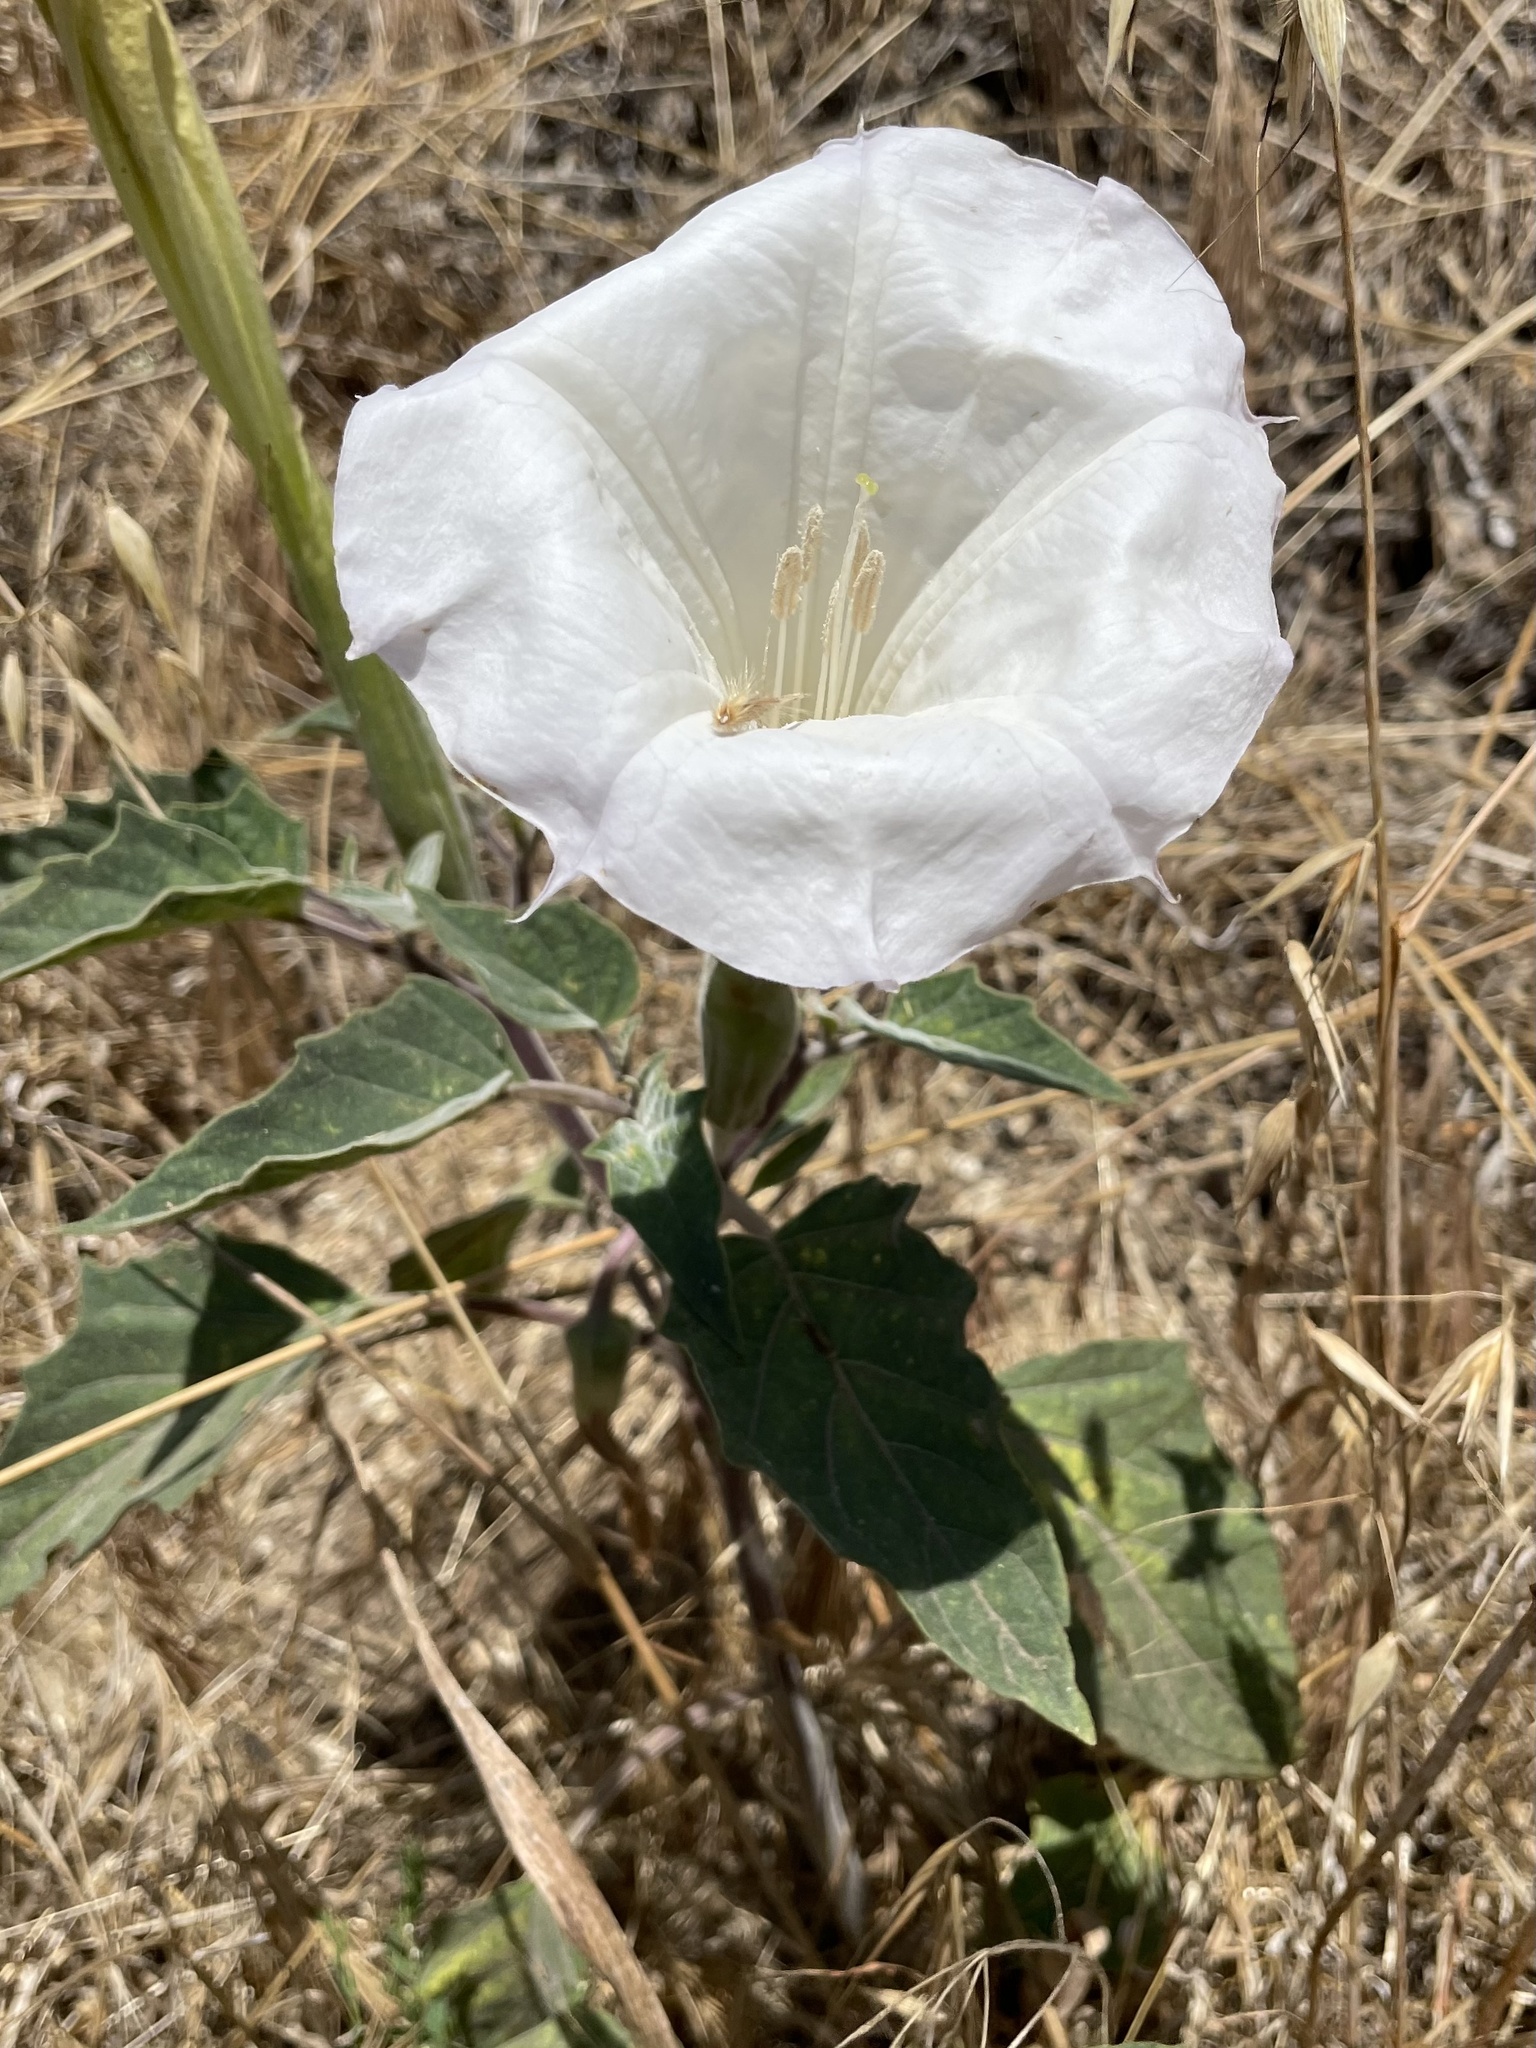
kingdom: Plantae
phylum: Tracheophyta
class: Magnoliopsida
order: Solanales
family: Solanaceae
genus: Datura
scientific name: Datura wrightii
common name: Sacred thorn-apple
